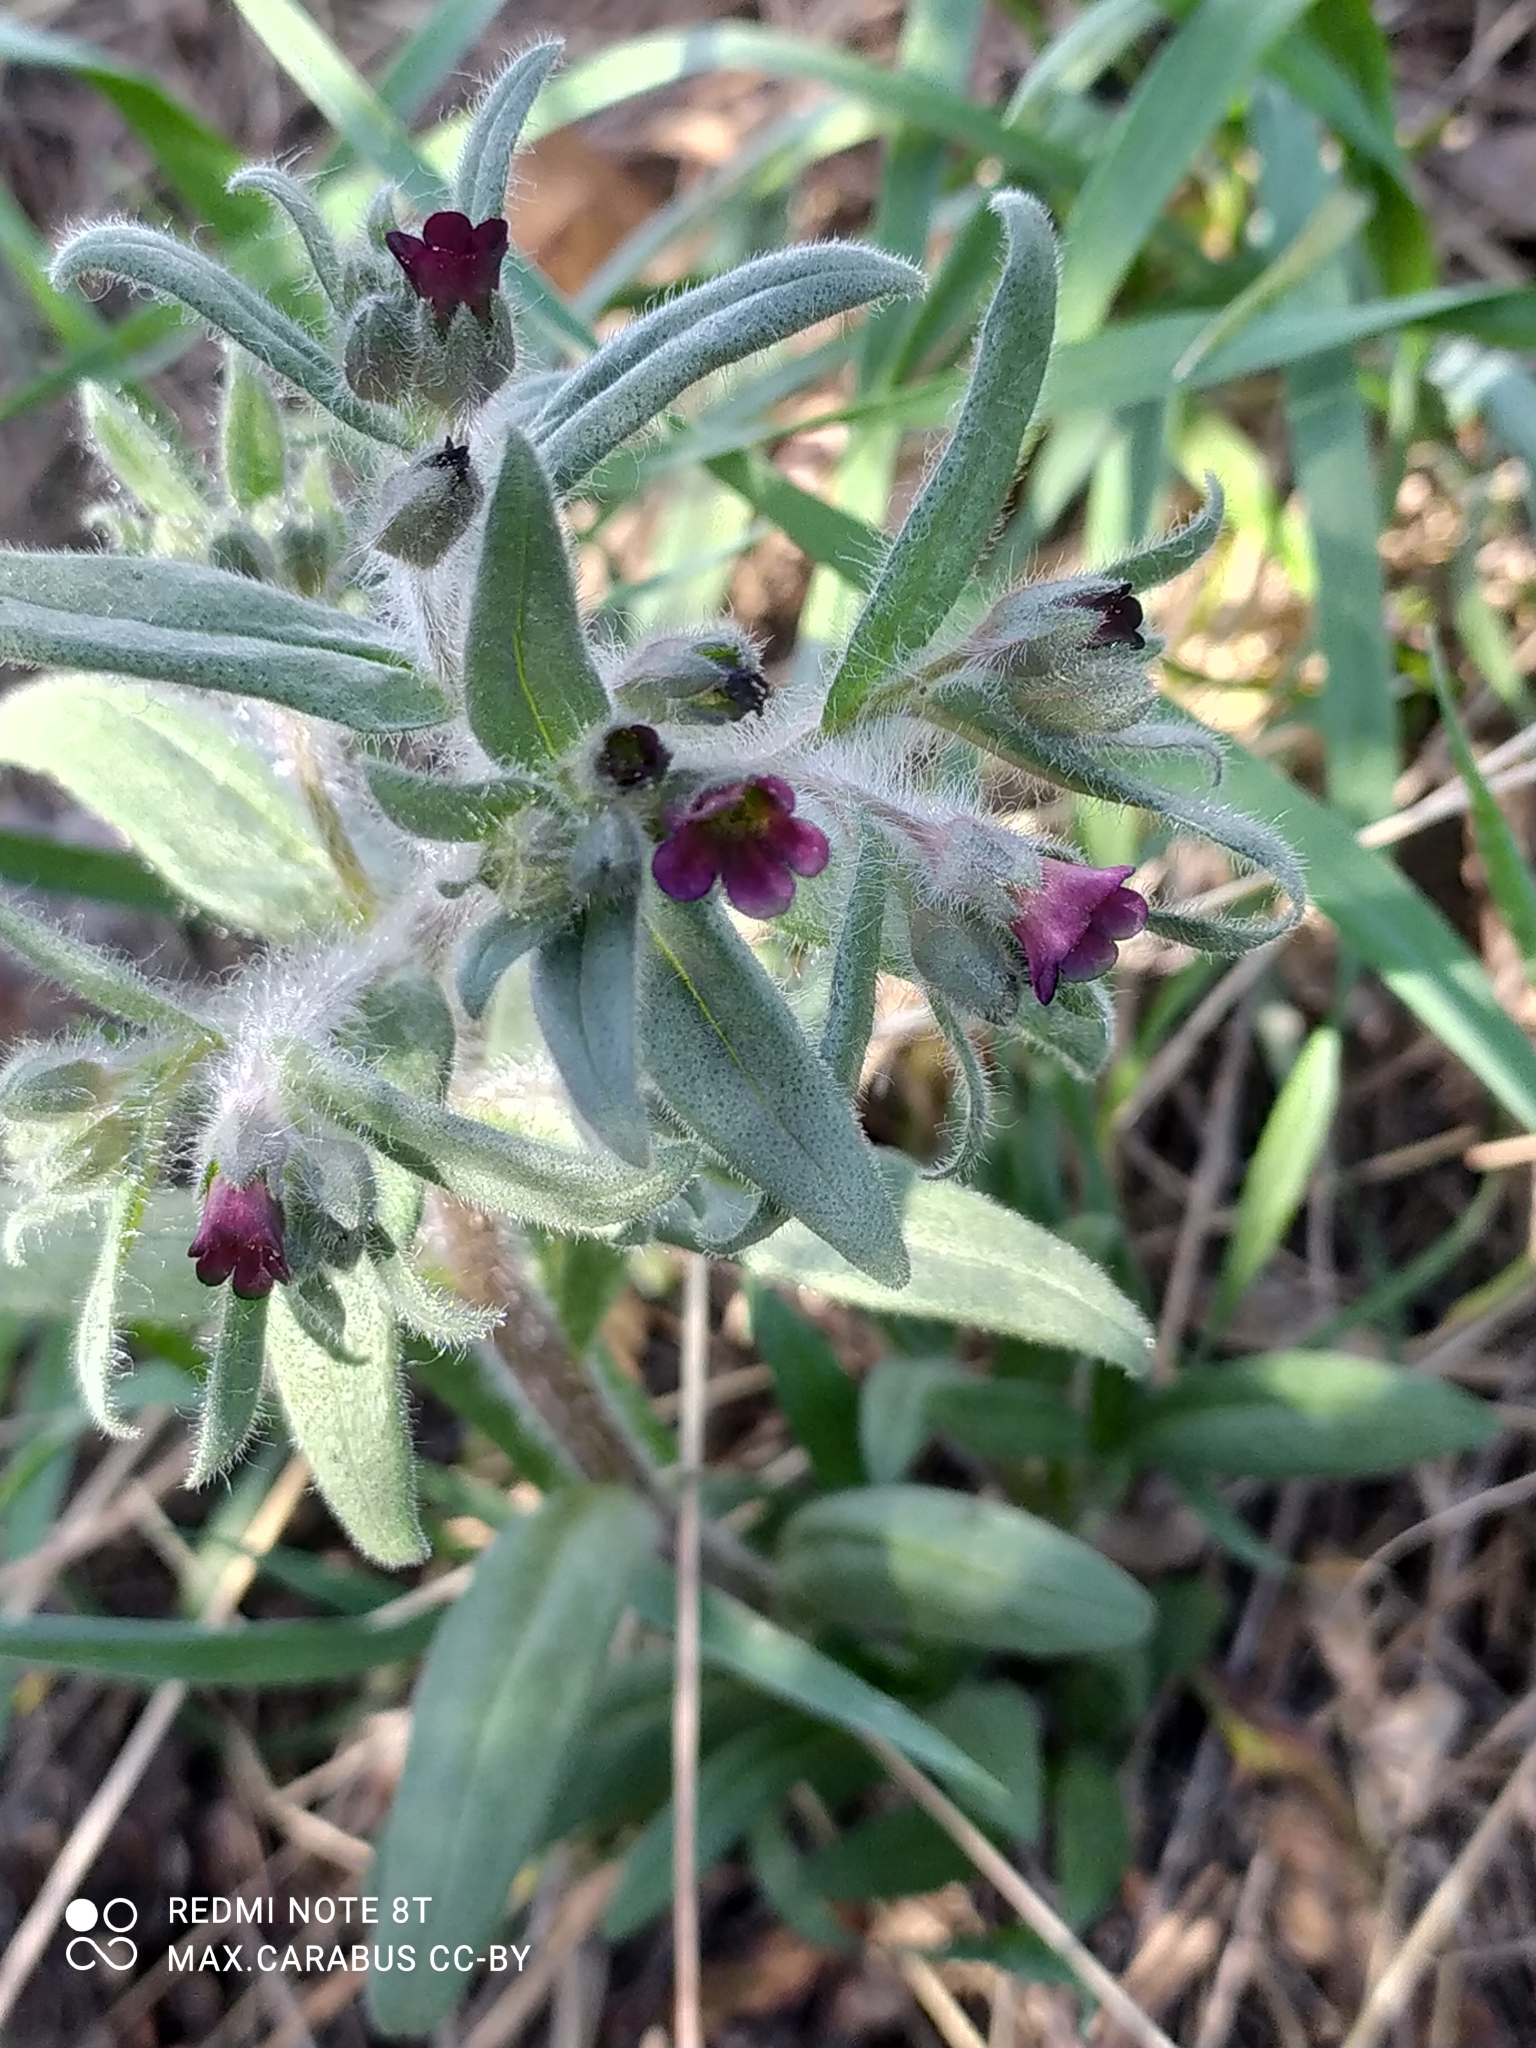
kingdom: Plantae
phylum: Tracheophyta
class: Magnoliopsida
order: Boraginales
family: Boraginaceae
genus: Nonea
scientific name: Nonea pulla
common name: Brown nonea
